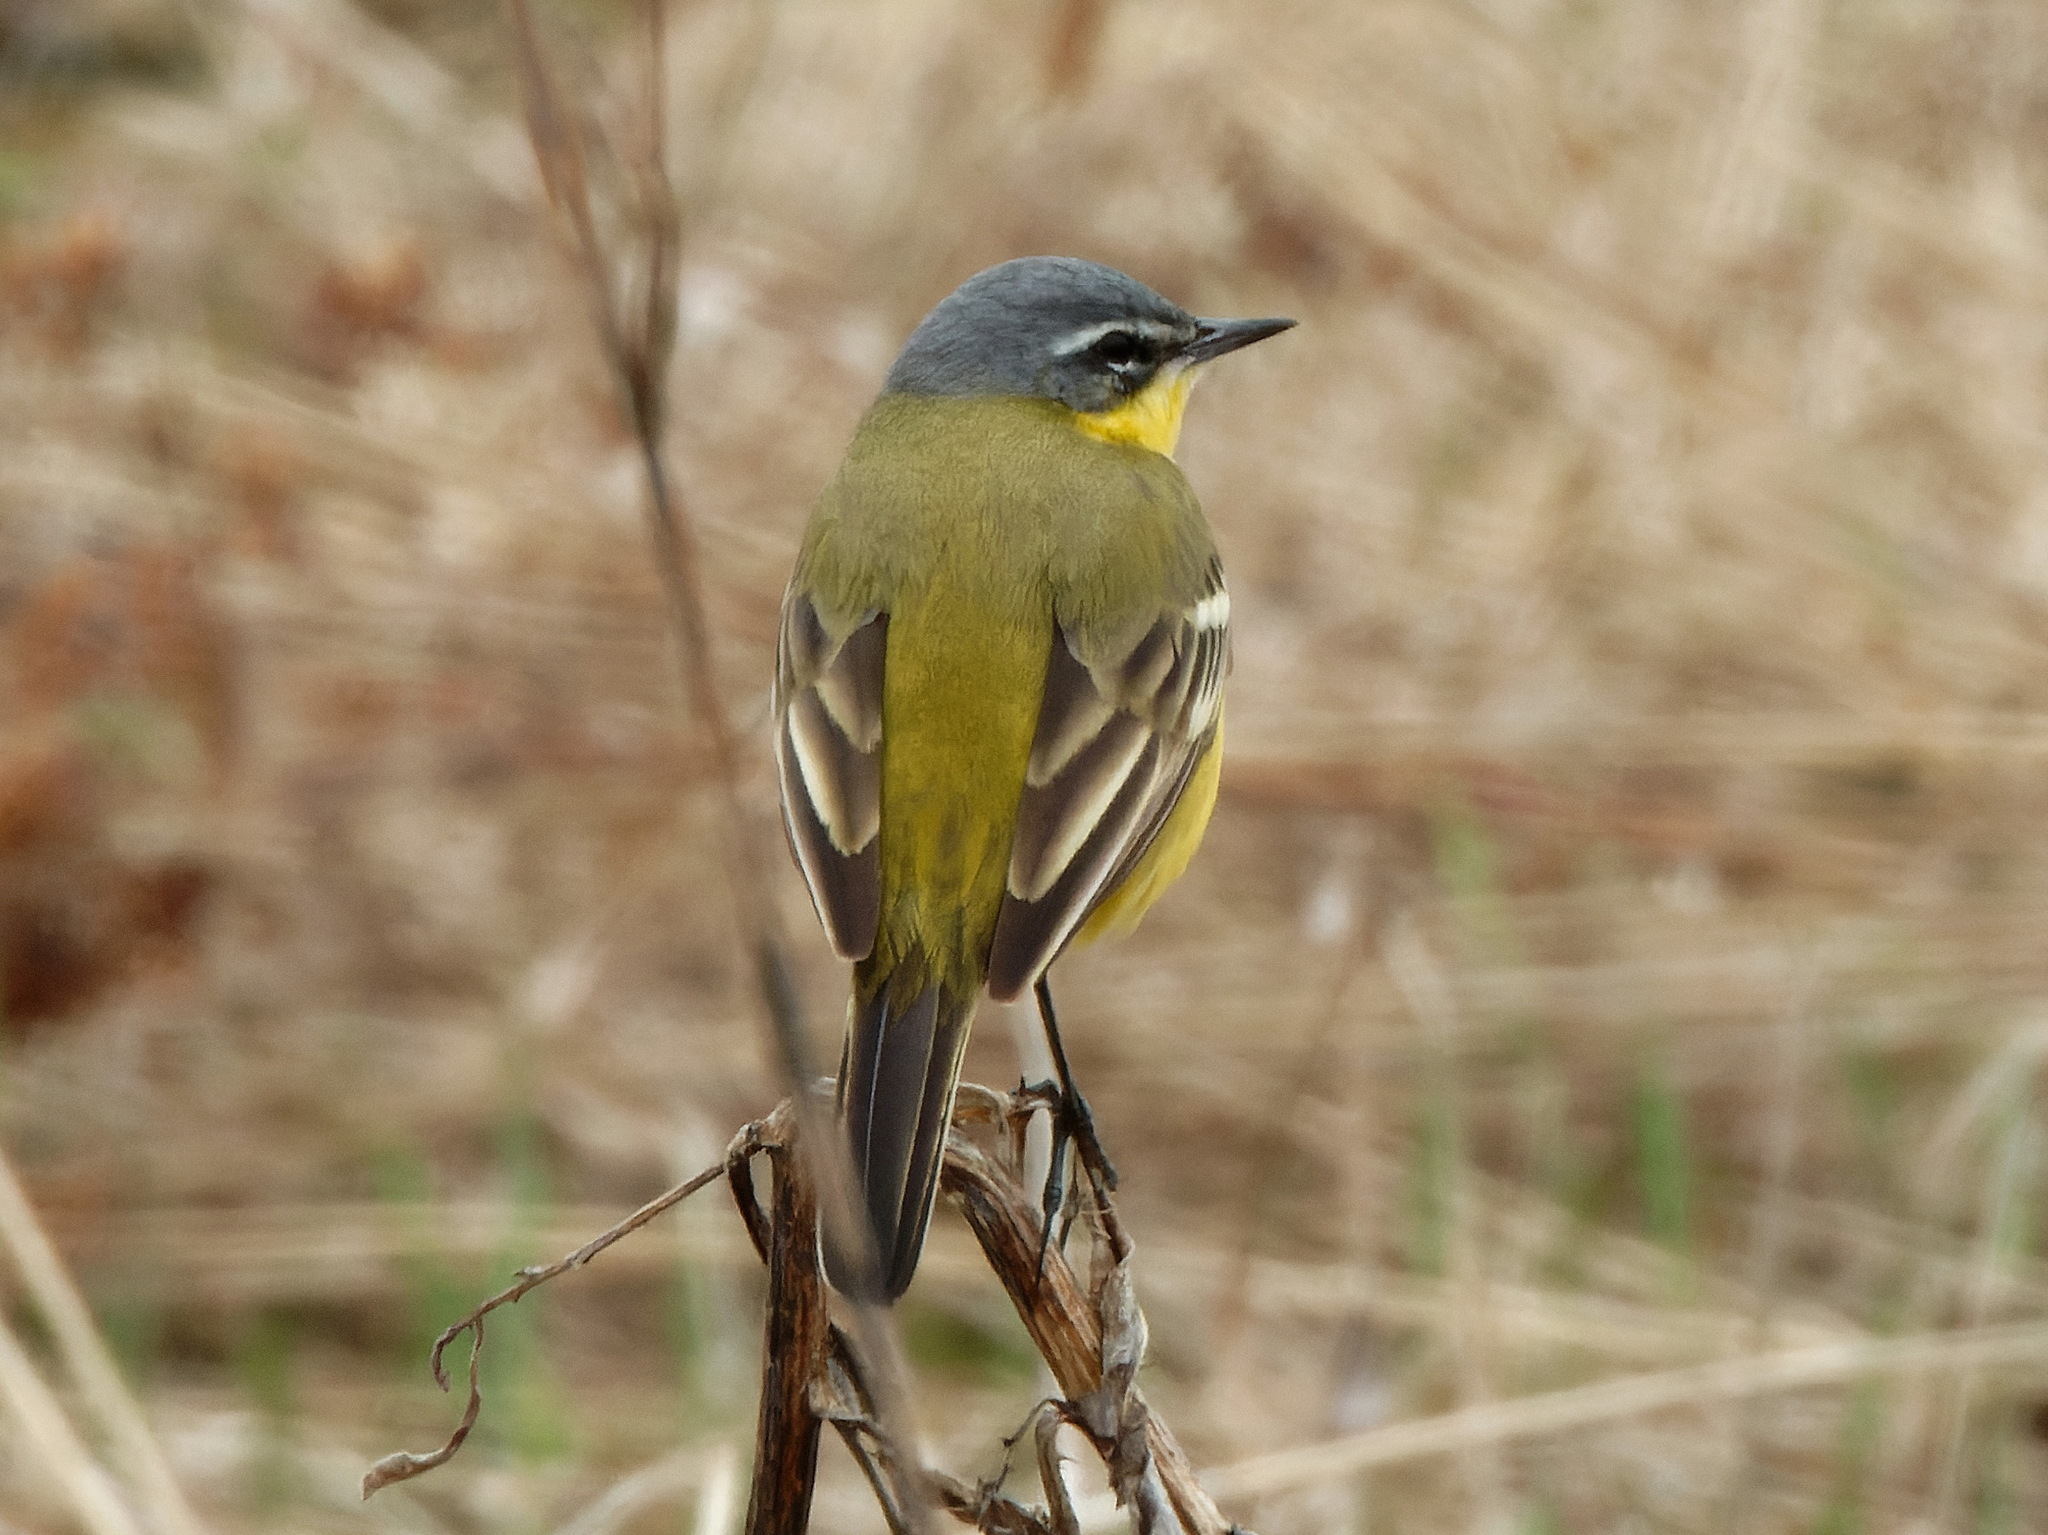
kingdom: Animalia
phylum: Chordata
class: Aves
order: Passeriformes
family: Motacillidae
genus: Motacilla
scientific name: Motacilla flava
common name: Western yellow wagtail
